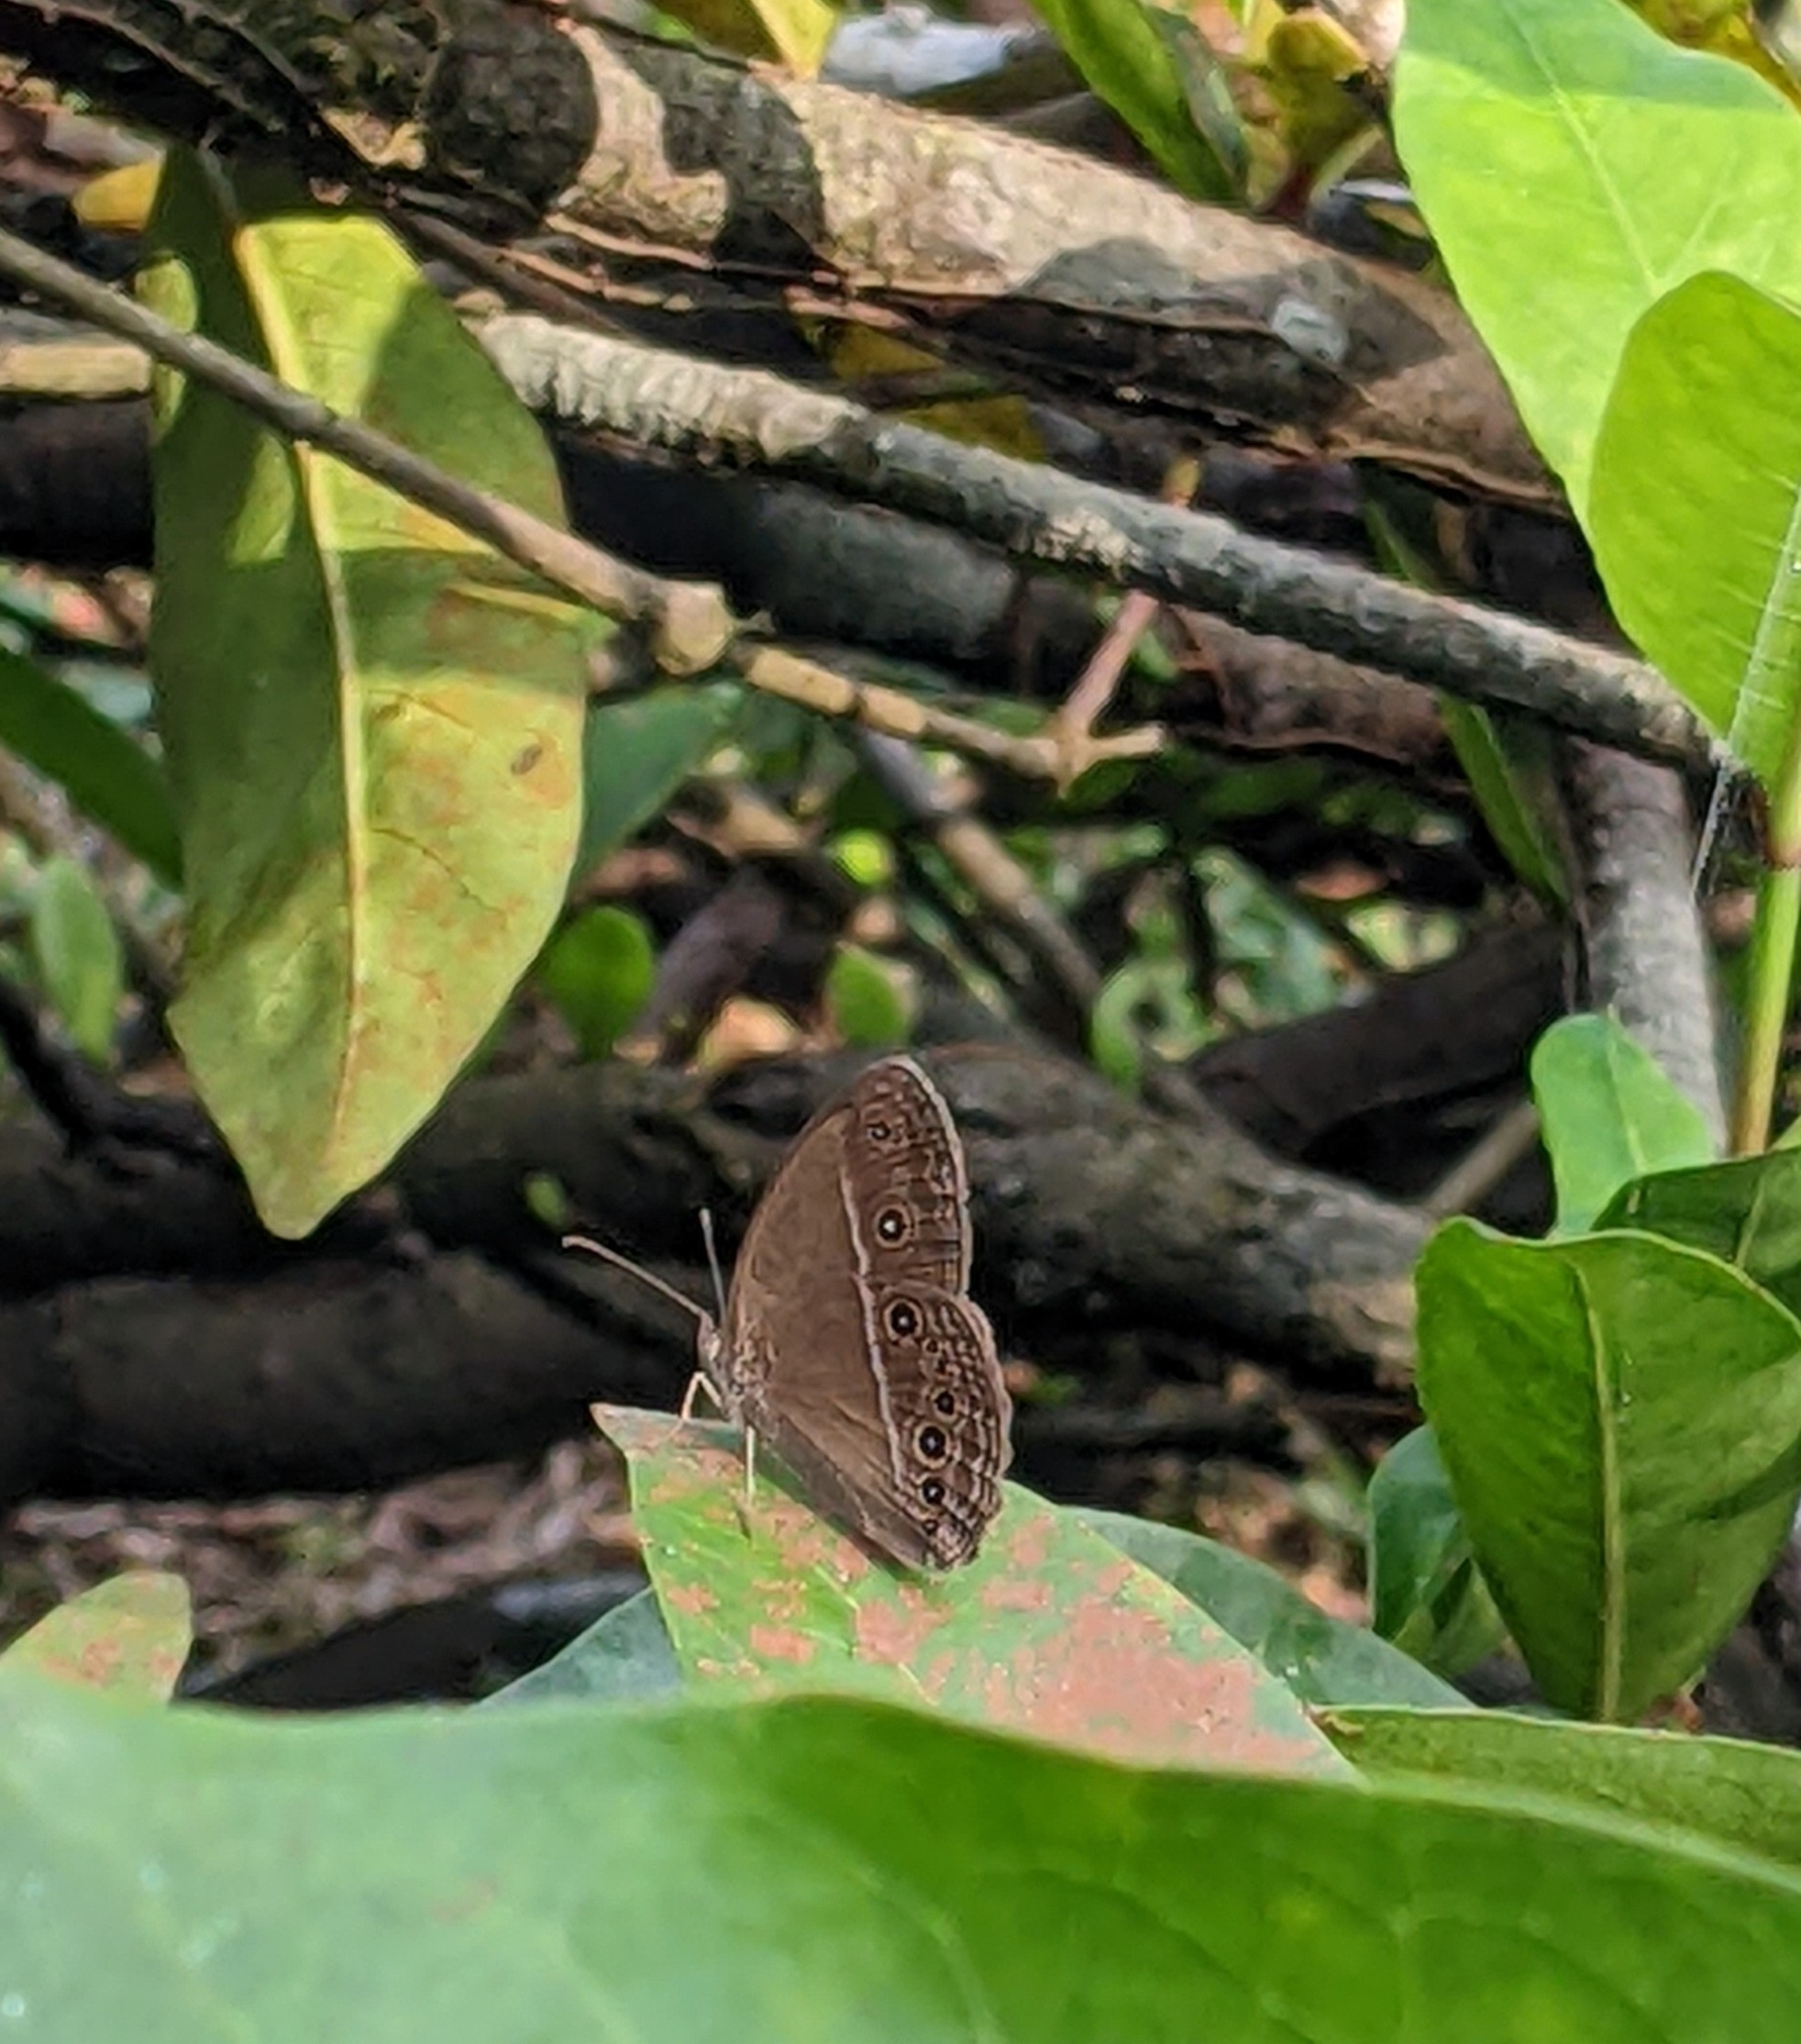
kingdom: Animalia
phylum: Arthropoda
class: Insecta
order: Lepidoptera
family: Nymphalidae
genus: Mycalesis
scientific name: Mycalesis perseus
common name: Dingy bushbrown
